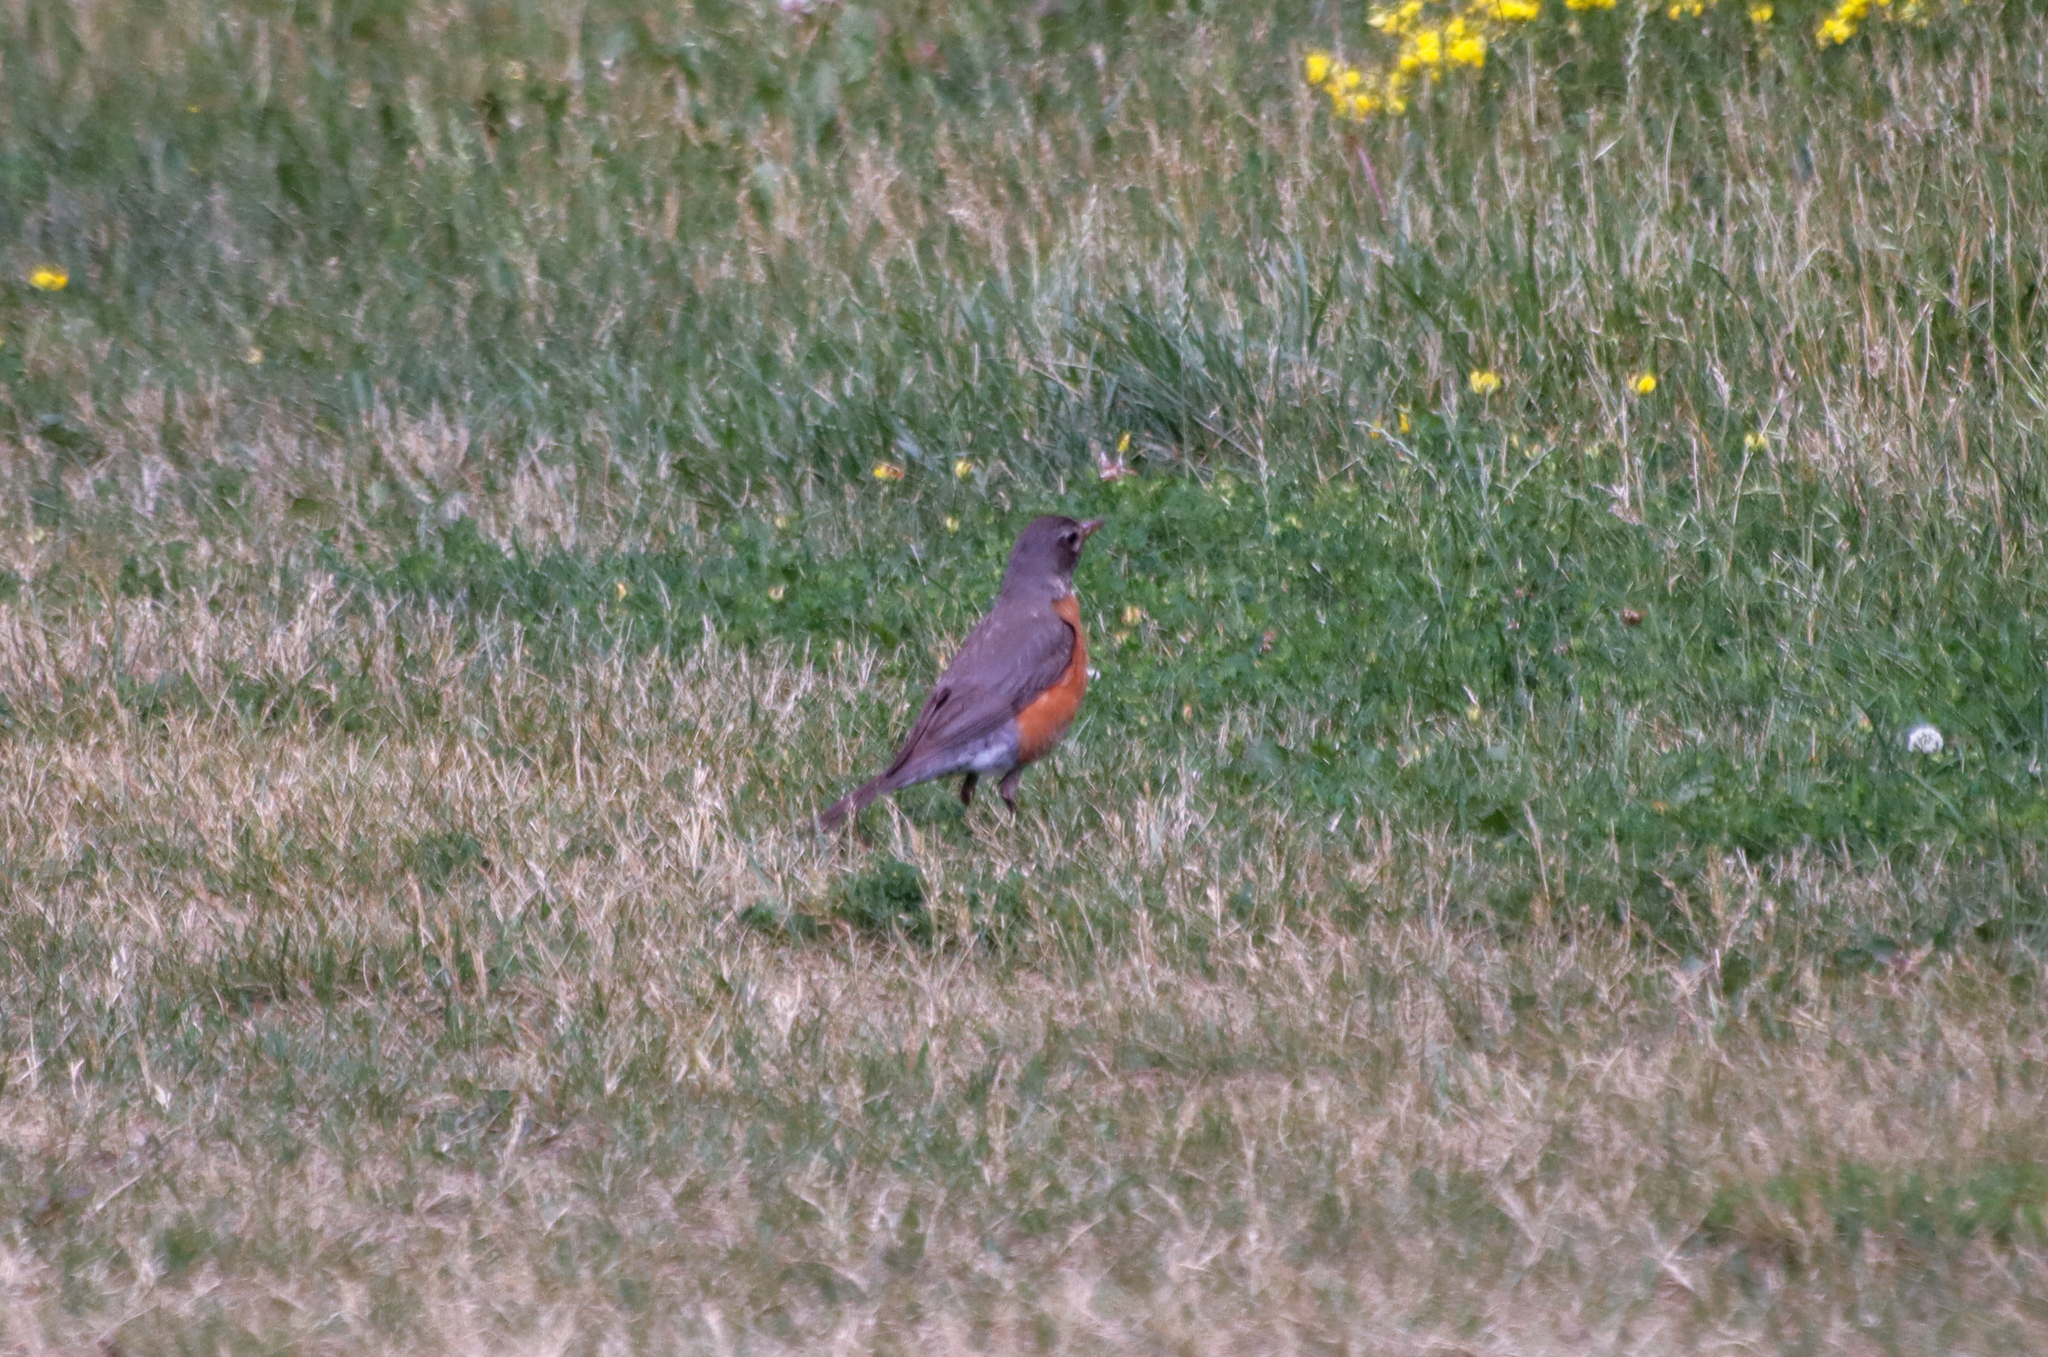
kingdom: Animalia
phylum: Chordata
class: Aves
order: Passeriformes
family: Turdidae
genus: Turdus
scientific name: Turdus migratorius
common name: American robin
